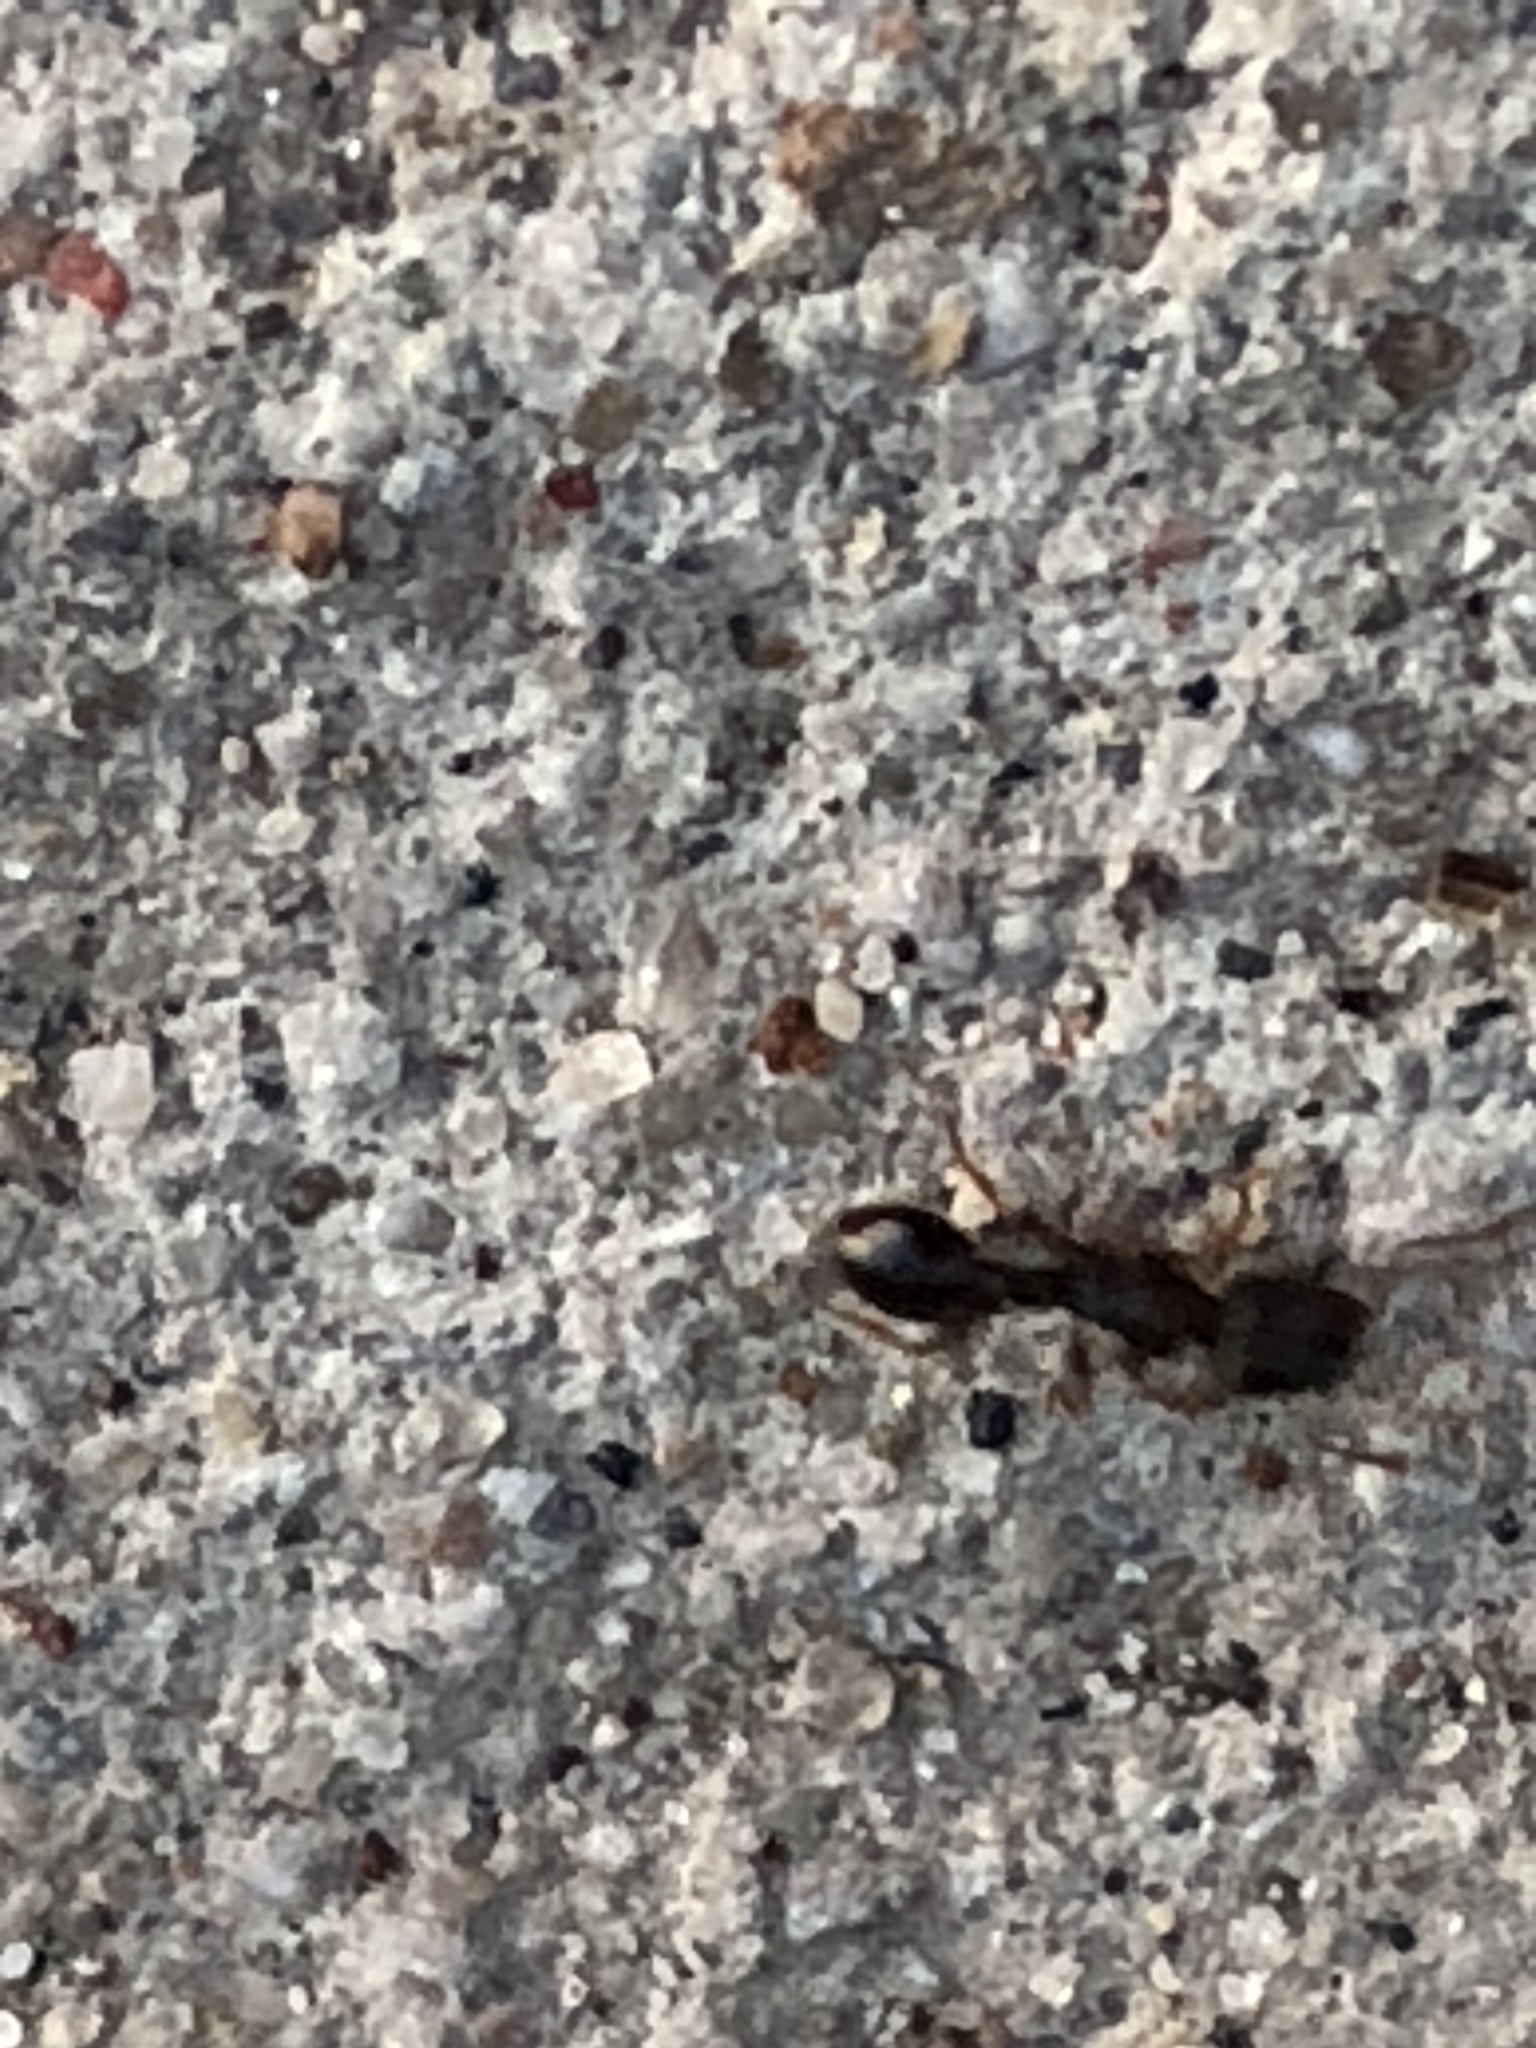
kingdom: Animalia
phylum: Arthropoda
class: Insecta
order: Hymenoptera
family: Formicidae
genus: Tetramorium
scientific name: Tetramorium immigrans
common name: Pavement ant
